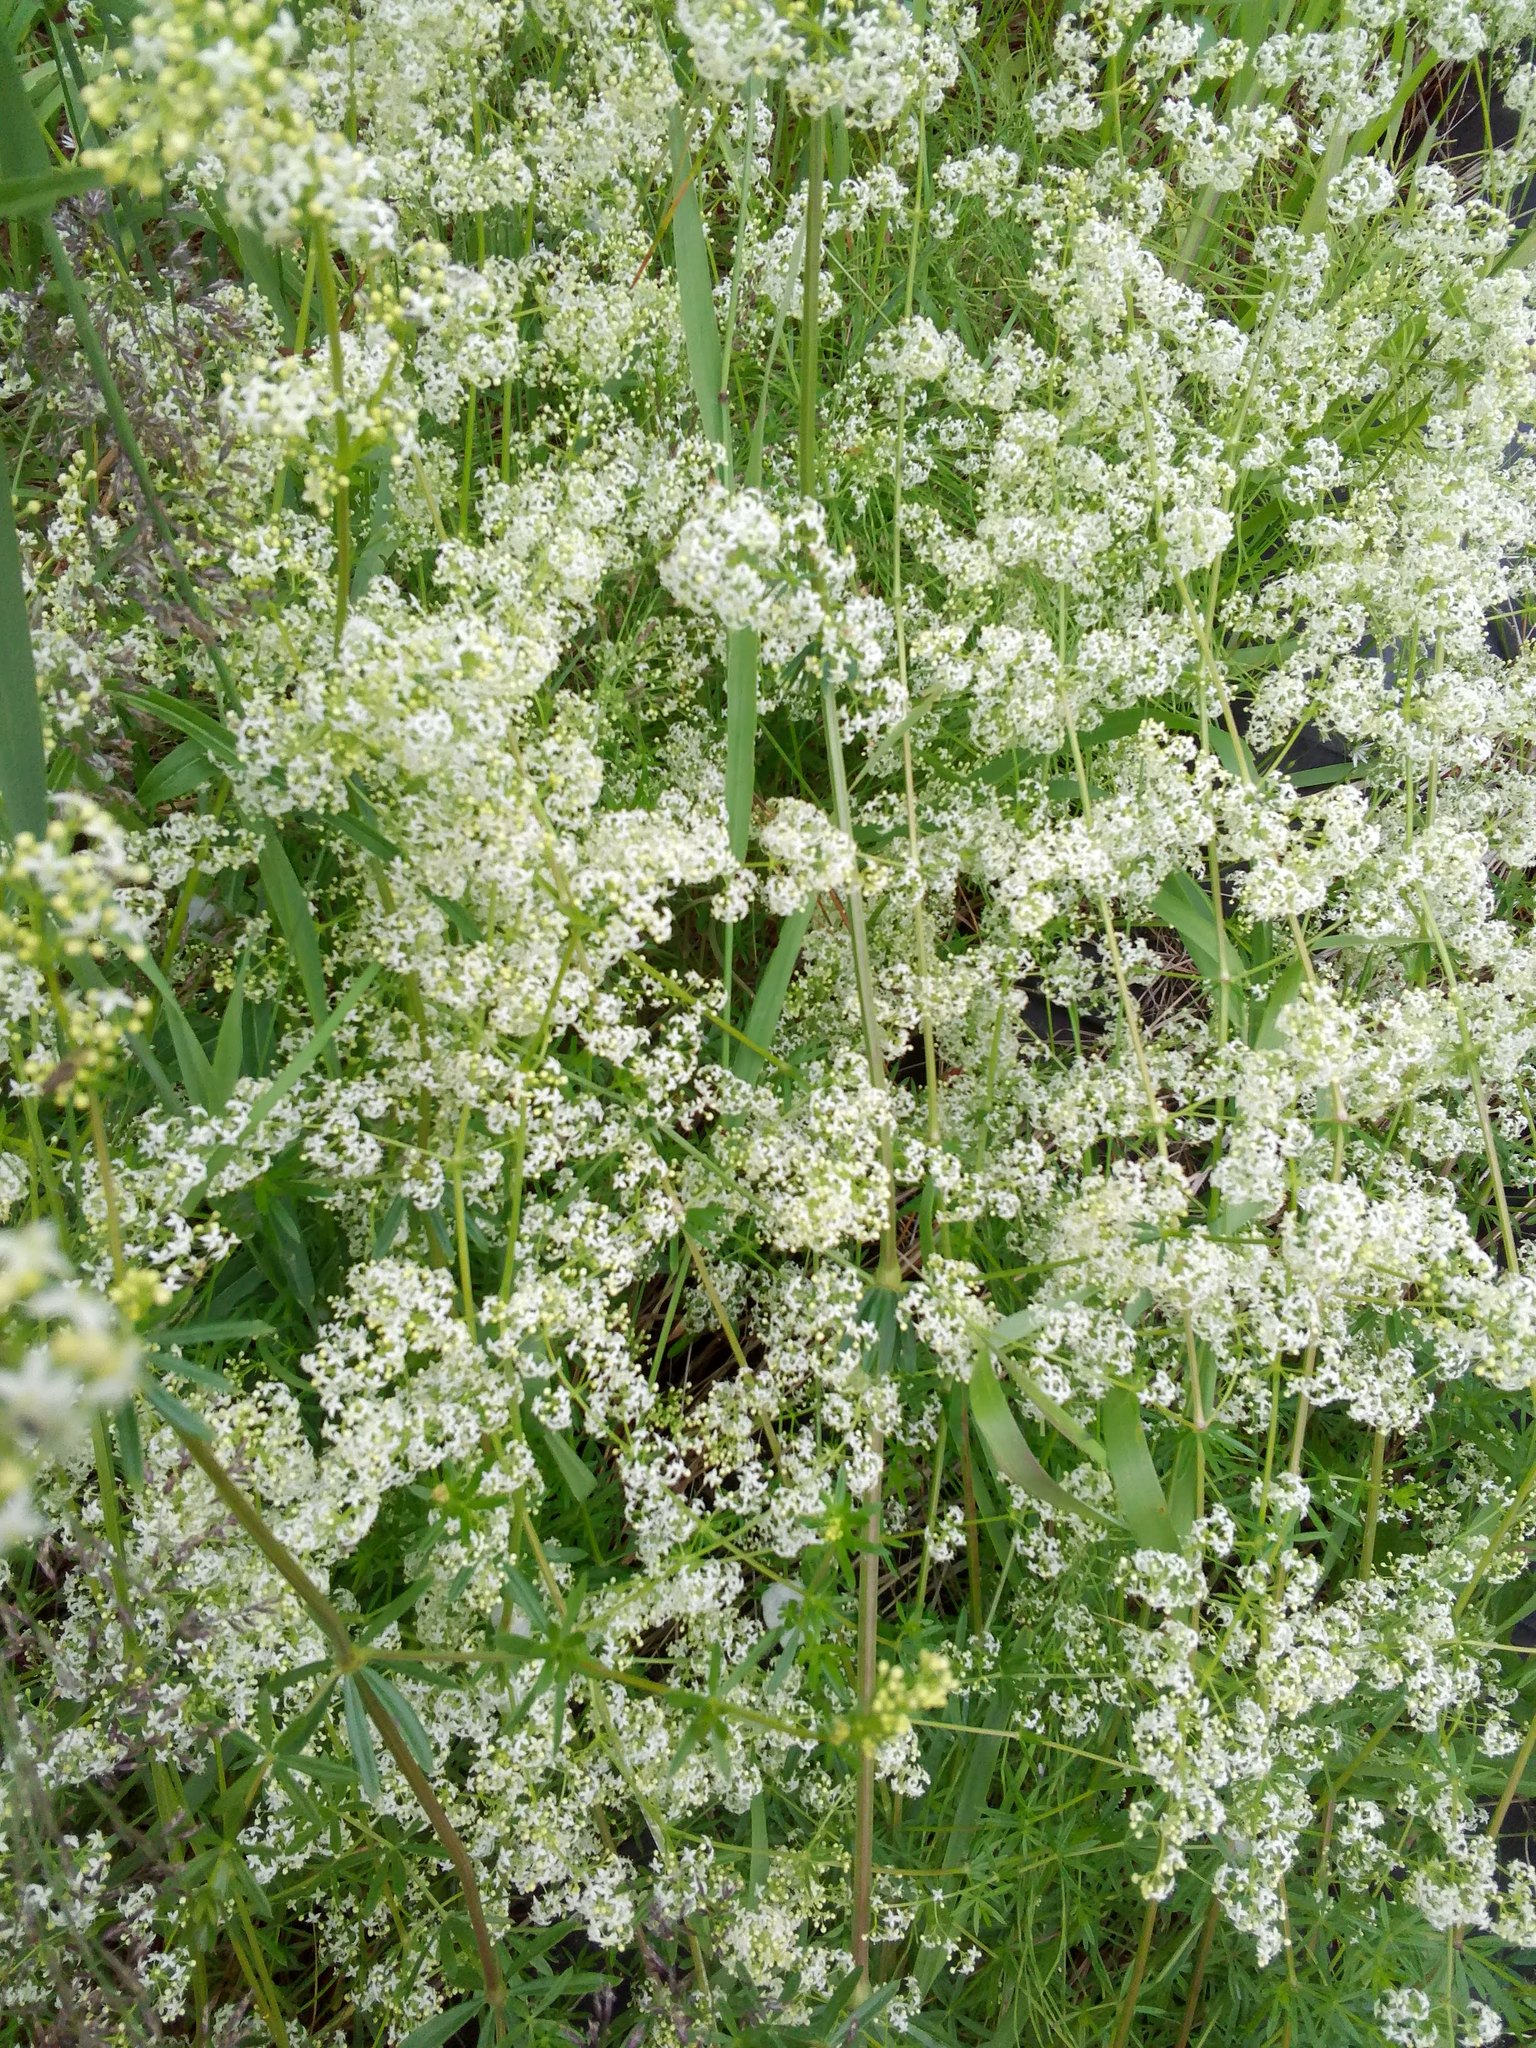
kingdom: Plantae
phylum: Tracheophyta
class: Magnoliopsida
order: Gentianales
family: Rubiaceae
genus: Galium
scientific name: Galium mollugo
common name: Hedge bedstraw
